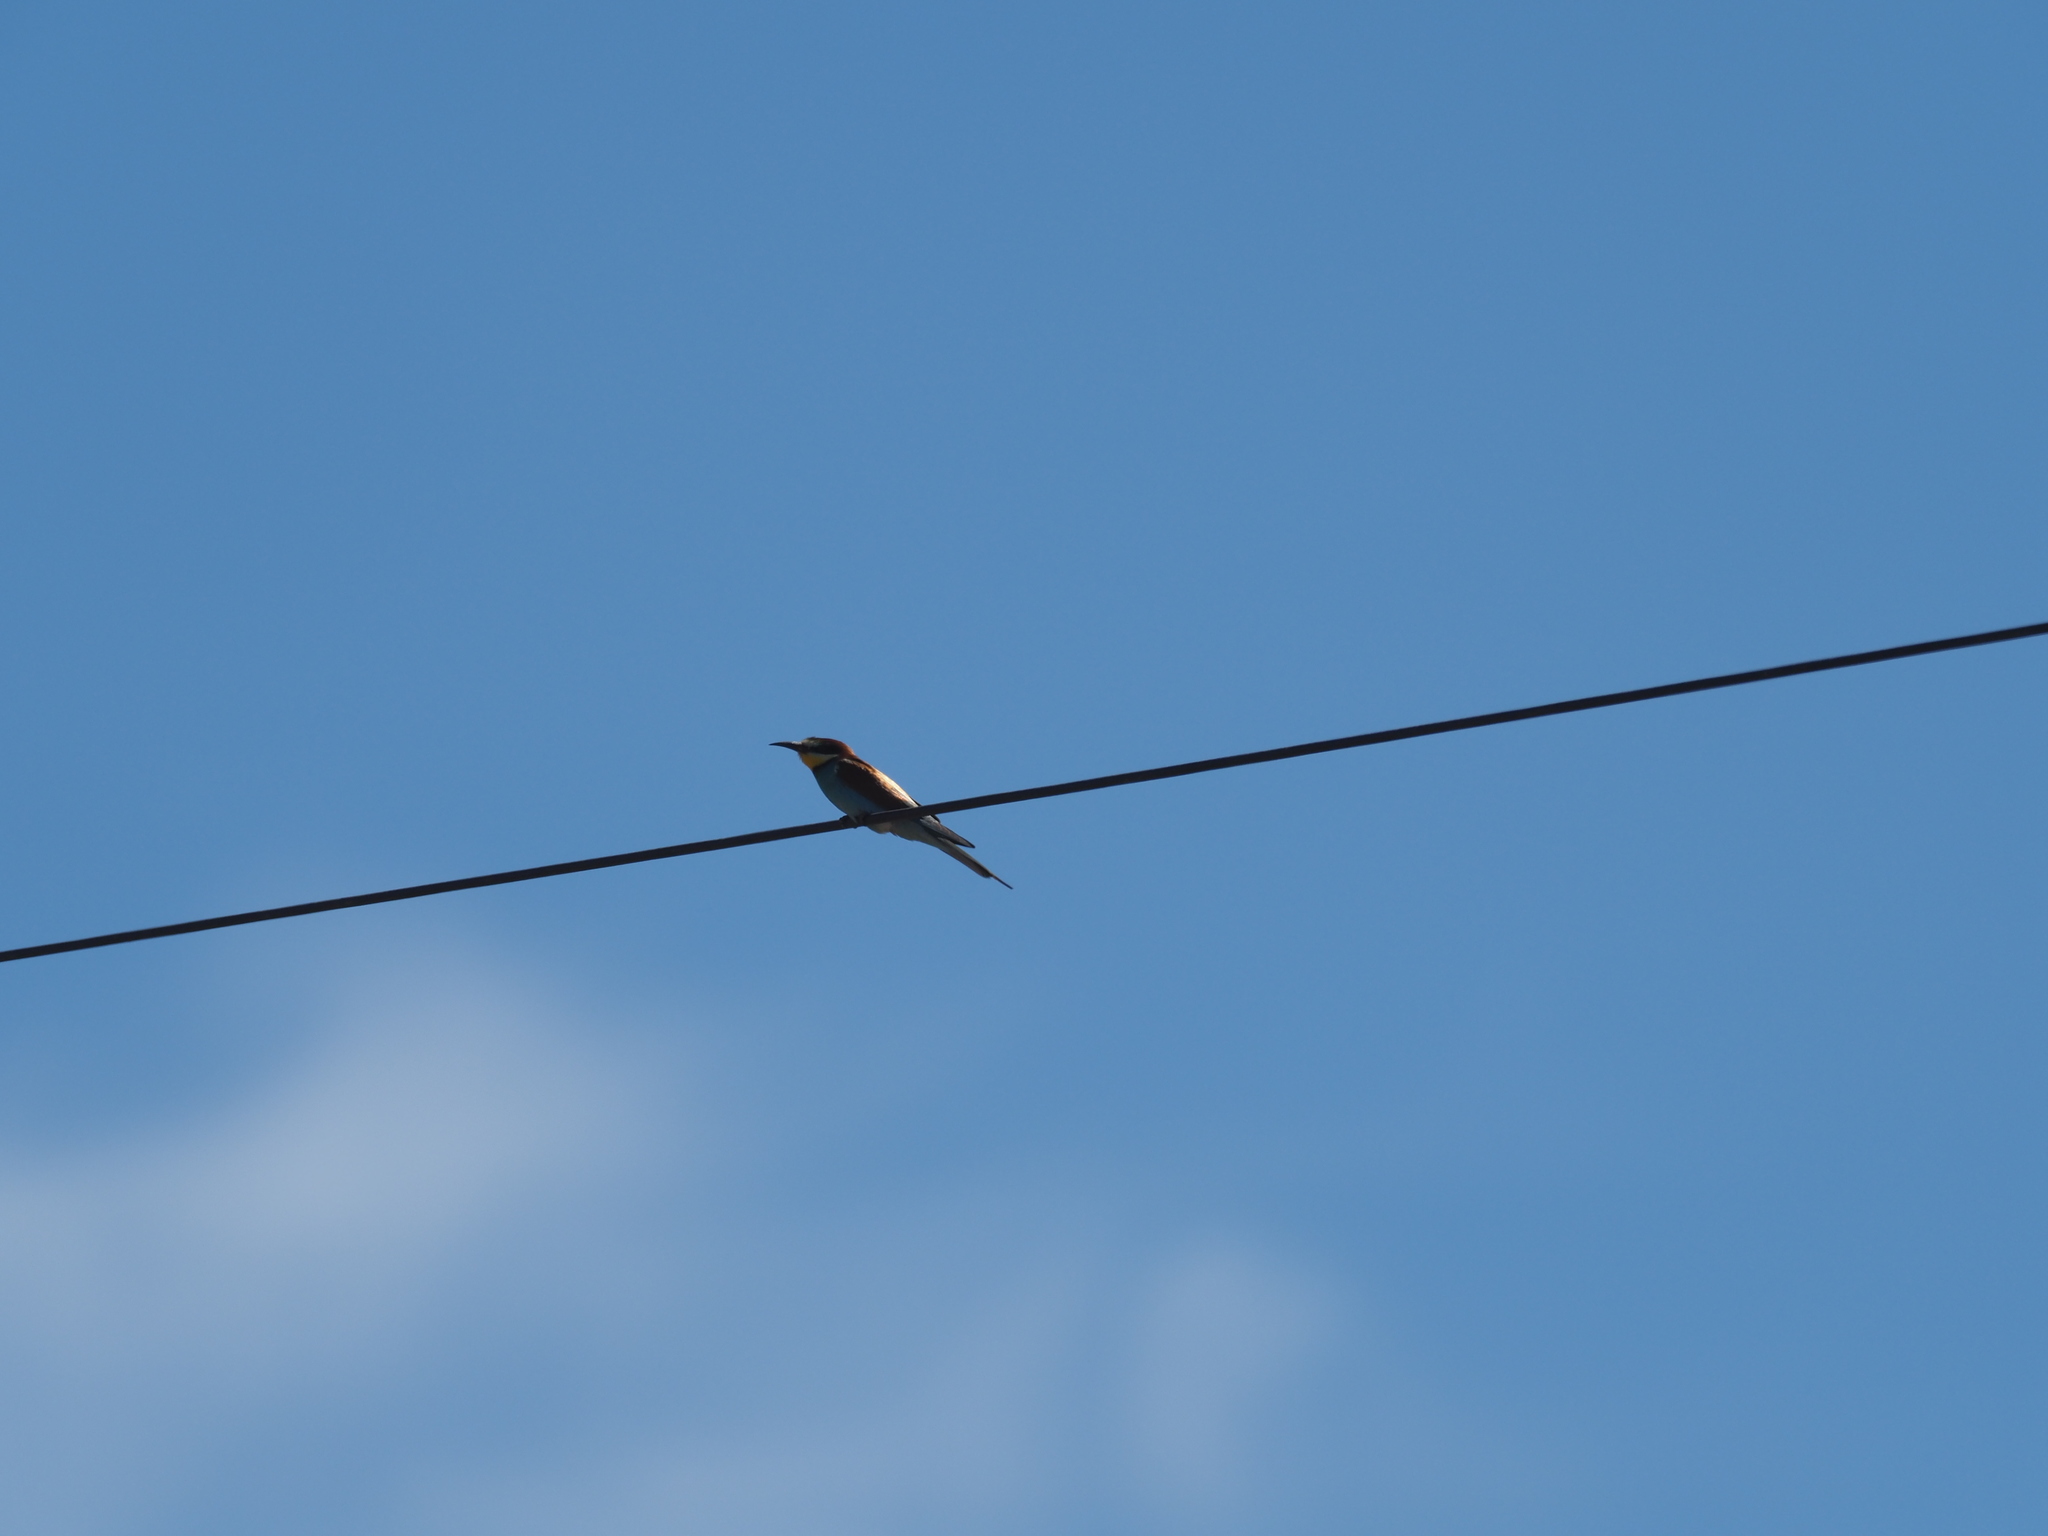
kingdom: Animalia
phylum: Chordata
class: Aves
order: Coraciiformes
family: Meropidae
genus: Merops
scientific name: Merops apiaster
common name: European bee-eater
